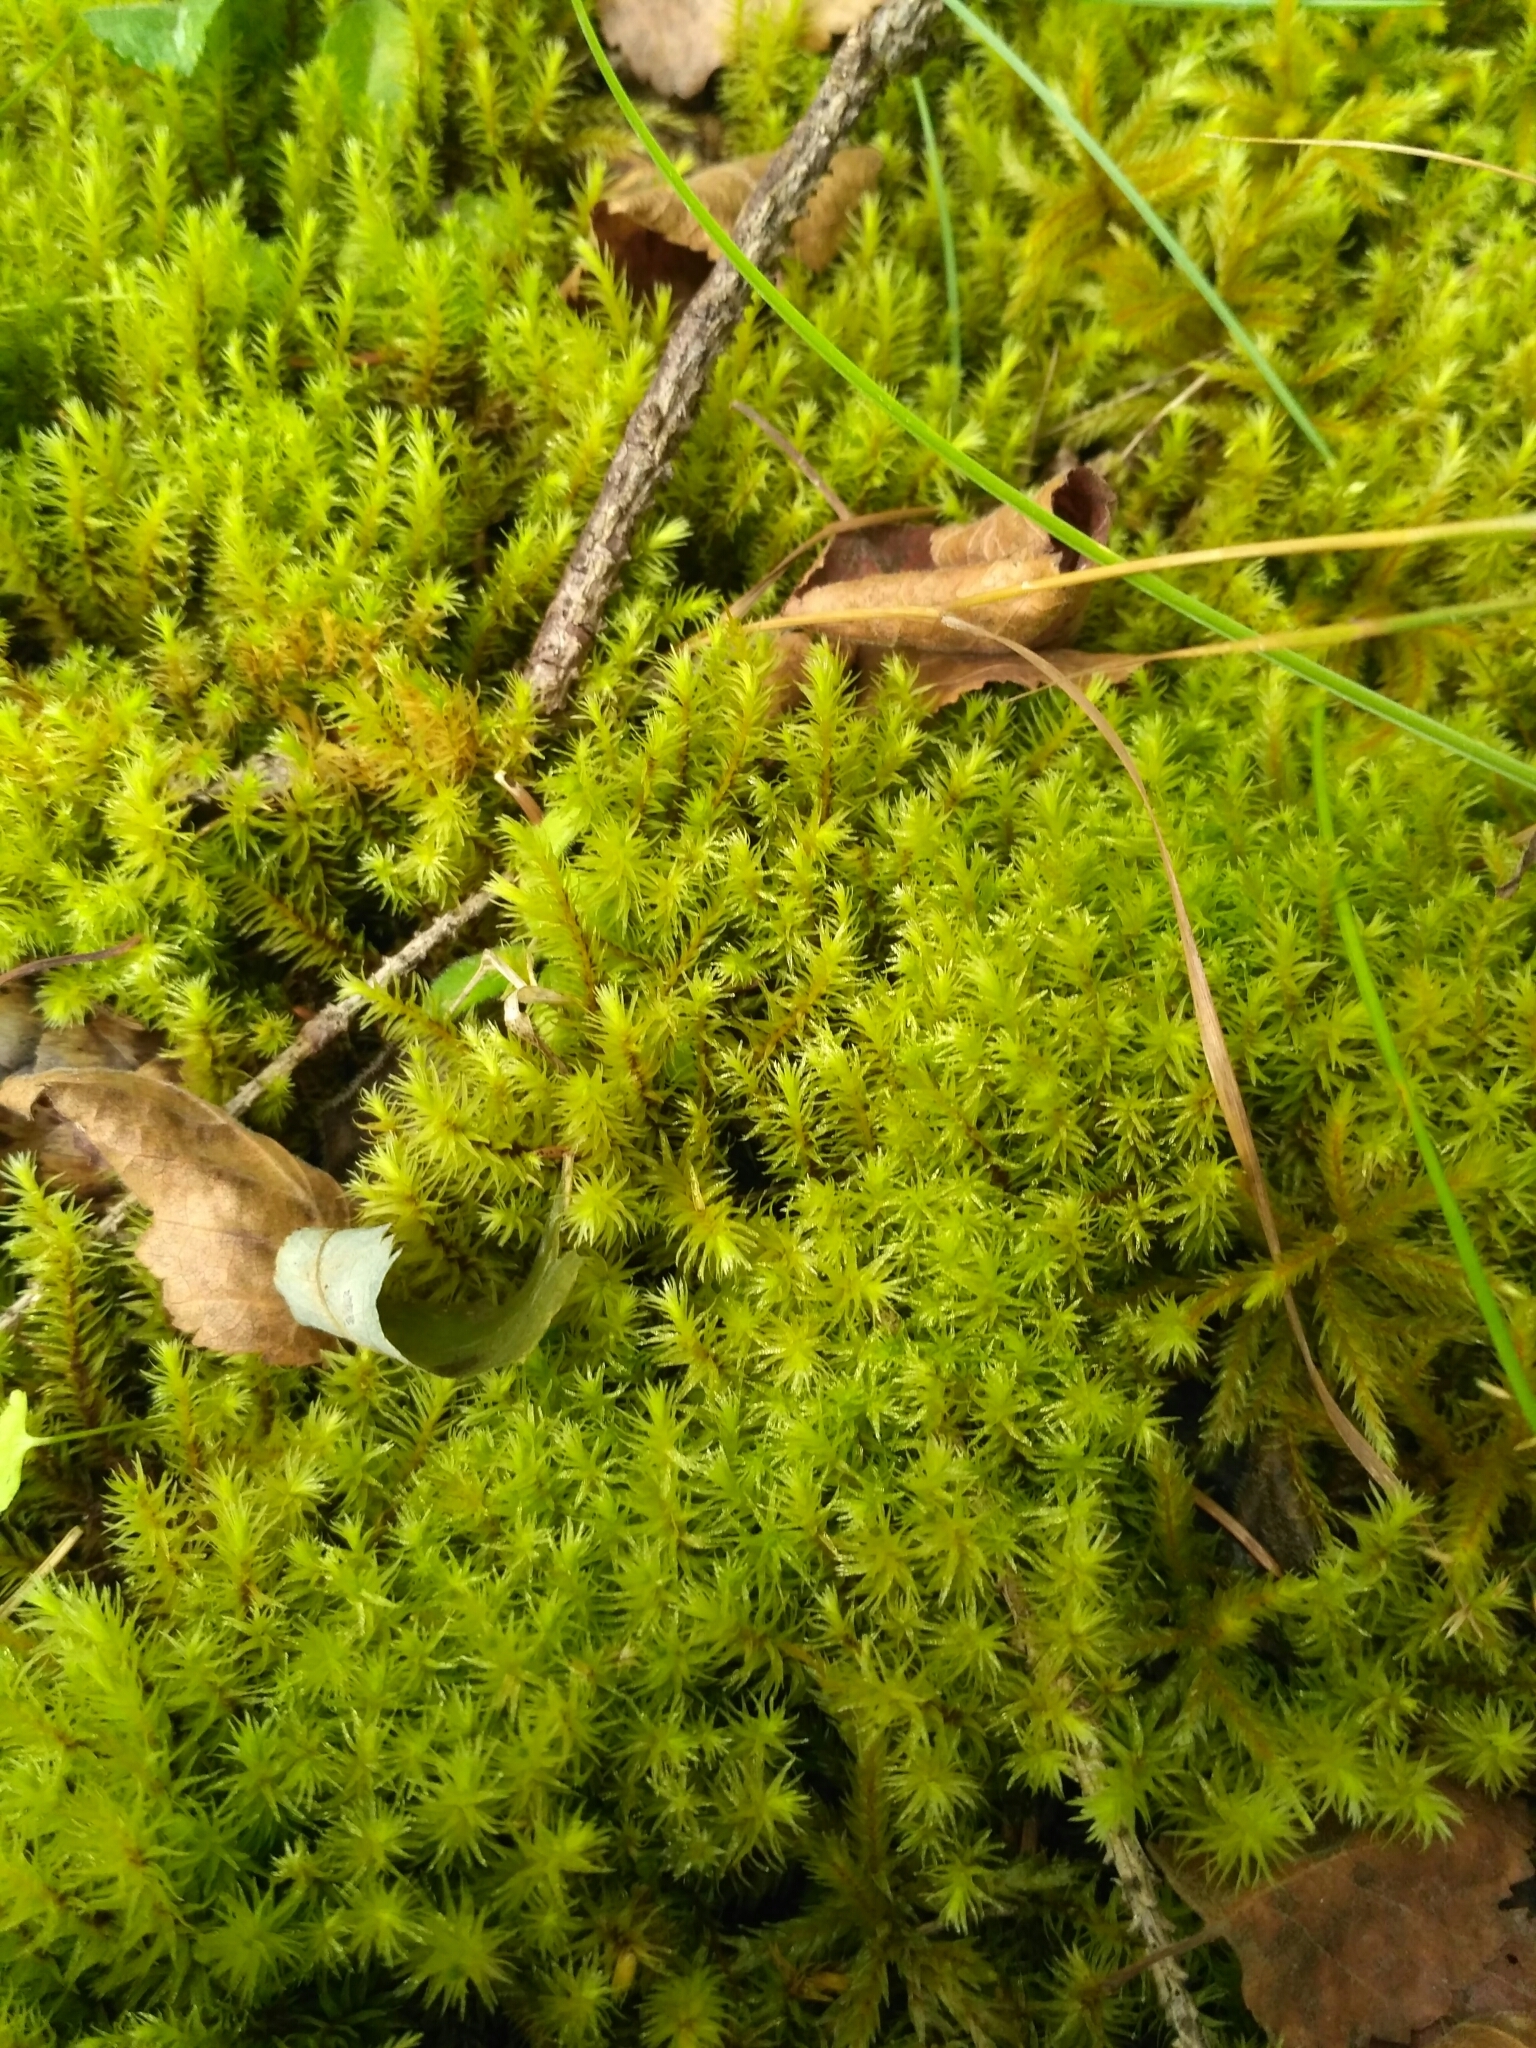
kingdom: Plantae
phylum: Bryophyta
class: Bryopsida
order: Aulacomniales
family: Aulacomniaceae
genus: Aulacomnium
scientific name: Aulacomnium palustre
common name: Bog groove-moss
